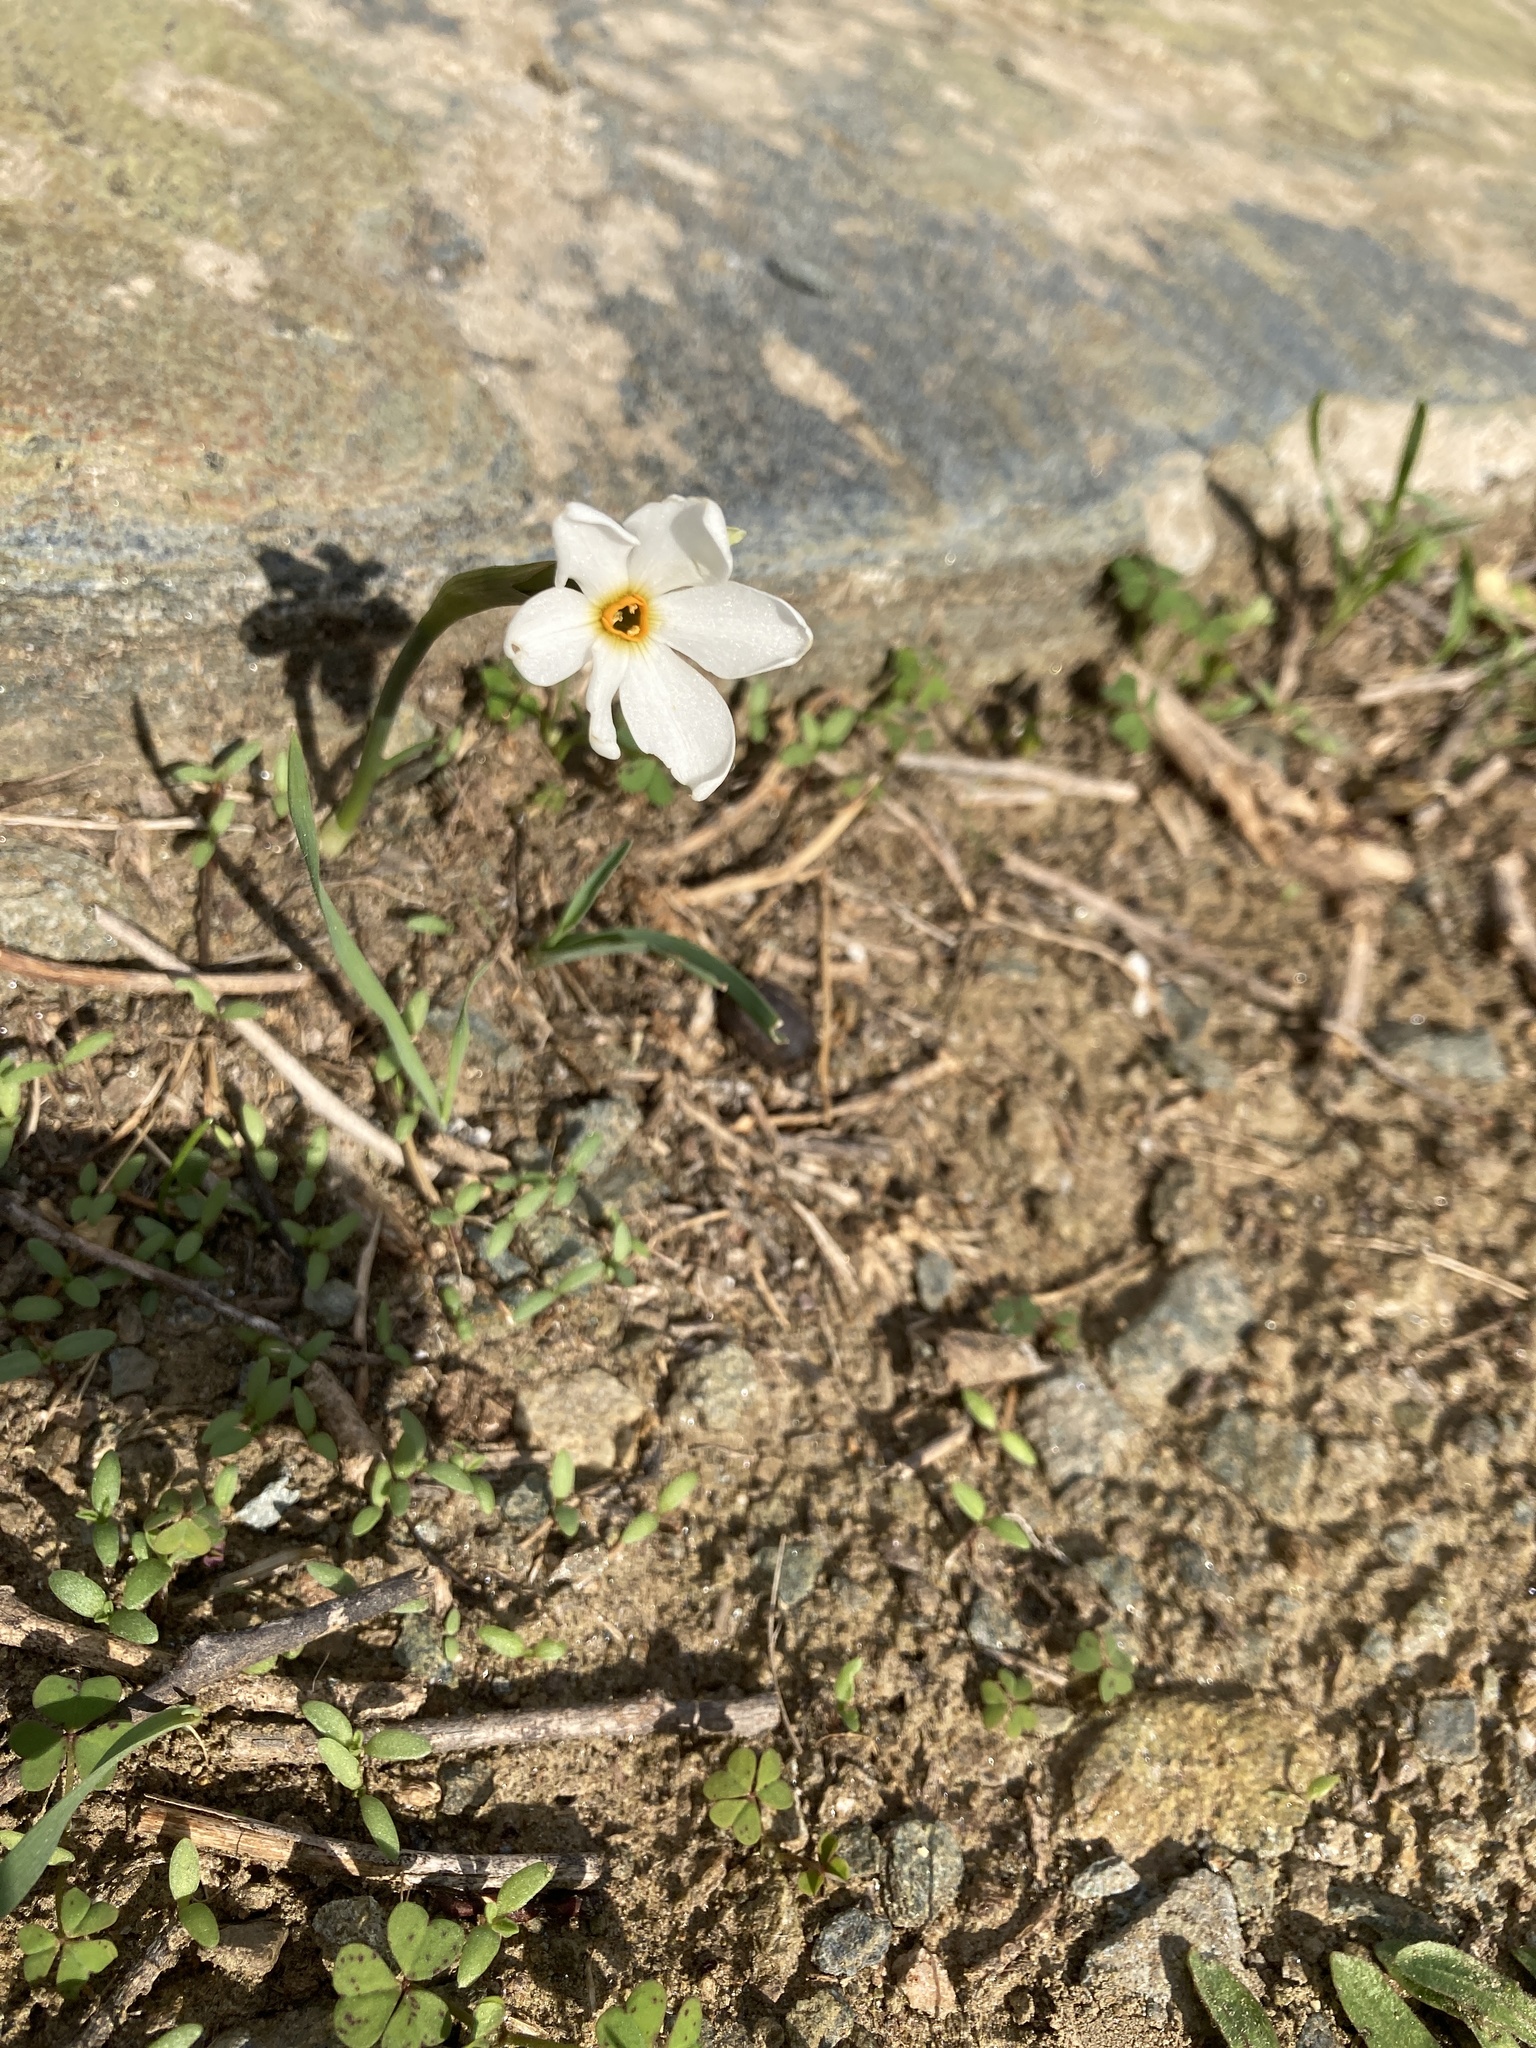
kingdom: Plantae
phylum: Tracheophyta
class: Liliopsida
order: Asparagales
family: Amaryllidaceae
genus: Narcissus
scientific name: Narcissus deficiens
